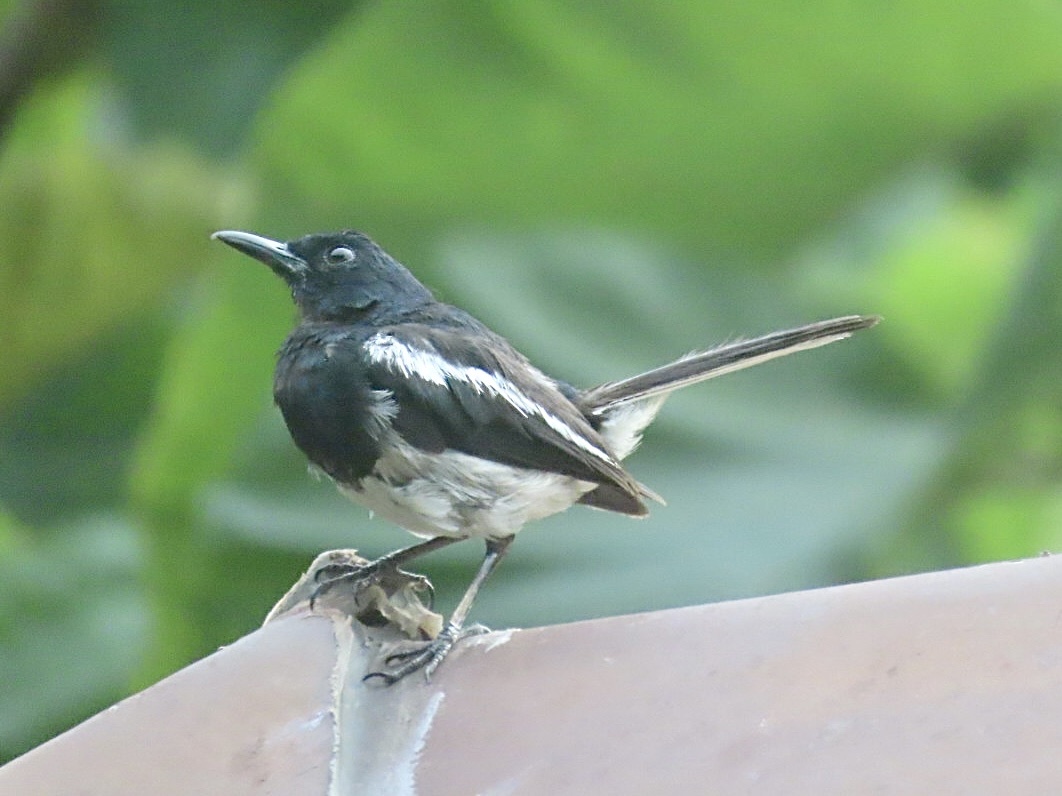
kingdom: Animalia
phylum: Chordata
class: Aves
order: Passeriformes
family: Muscicapidae
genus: Copsychus
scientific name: Copsychus saularis
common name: Oriental magpie-robin
